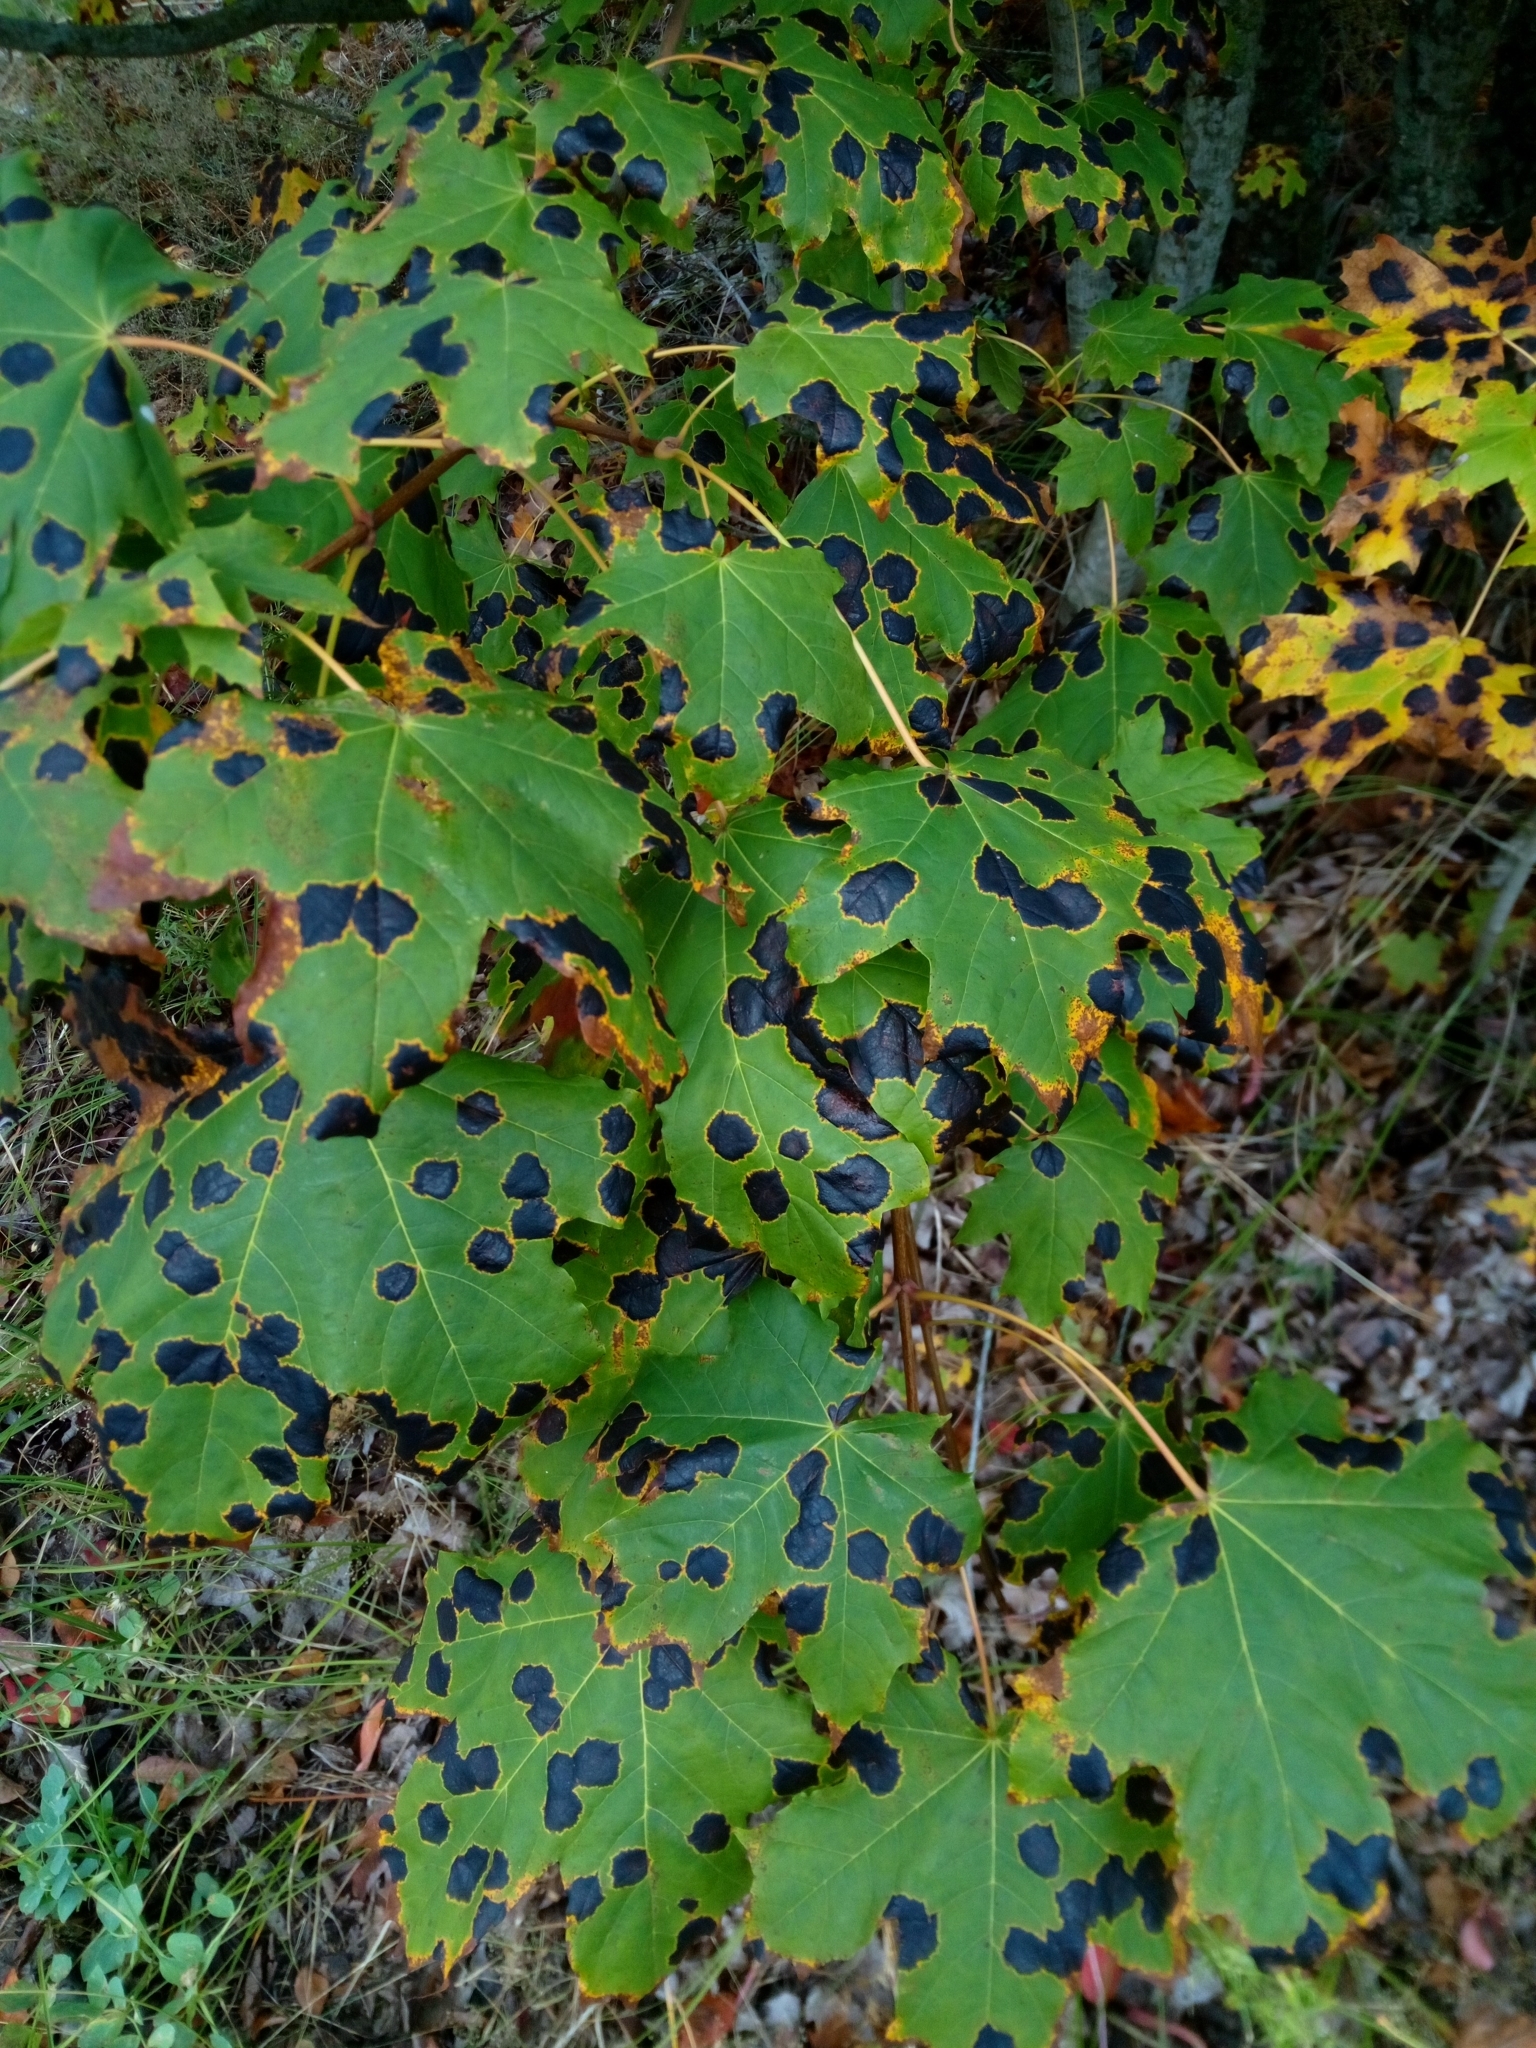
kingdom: Fungi
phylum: Ascomycota
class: Leotiomycetes
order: Rhytismatales
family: Rhytismataceae
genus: Rhytisma
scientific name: Rhytisma acerinum
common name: European tar spot
